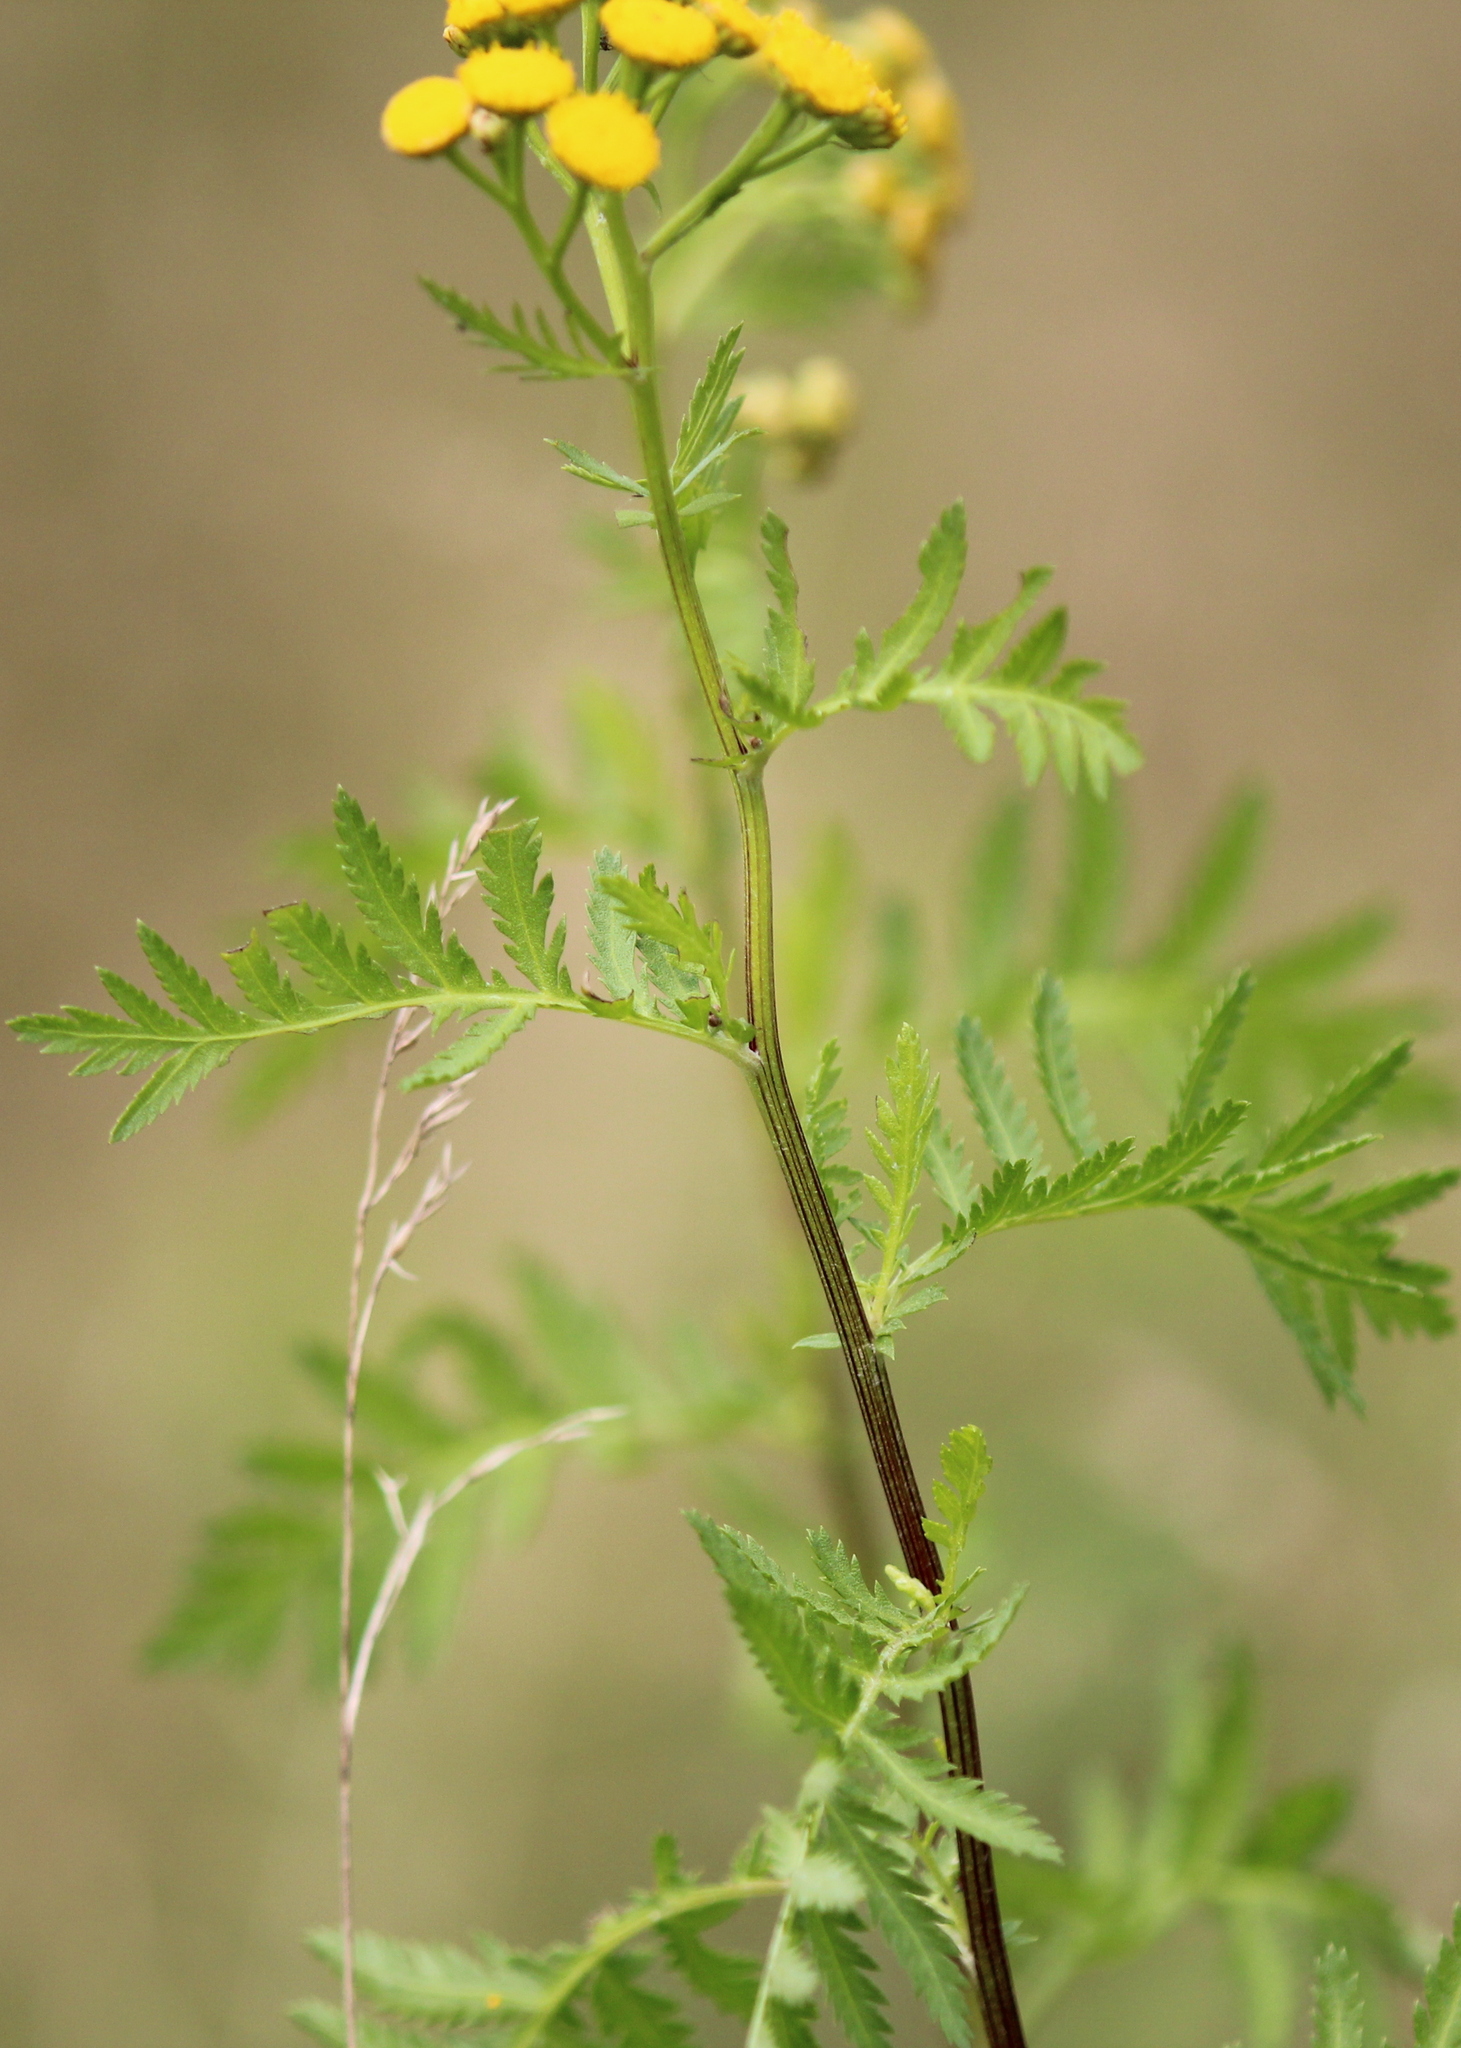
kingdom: Plantae
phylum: Tracheophyta
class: Magnoliopsida
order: Asterales
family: Asteraceae
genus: Tanacetum
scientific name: Tanacetum vulgare
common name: Common tansy
